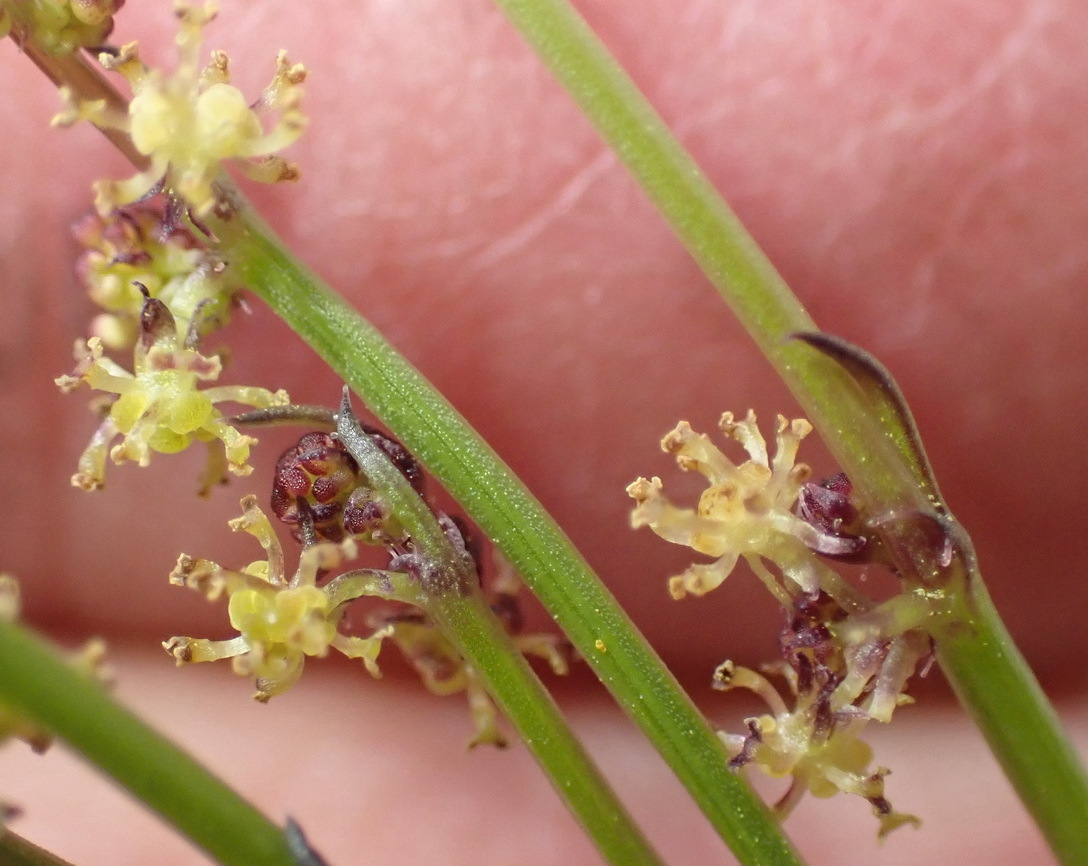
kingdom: Plantae
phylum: Tracheophyta
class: Magnoliopsida
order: Malpighiales
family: Euphorbiaceae
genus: Adenocline
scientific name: Adenocline pauciflora
